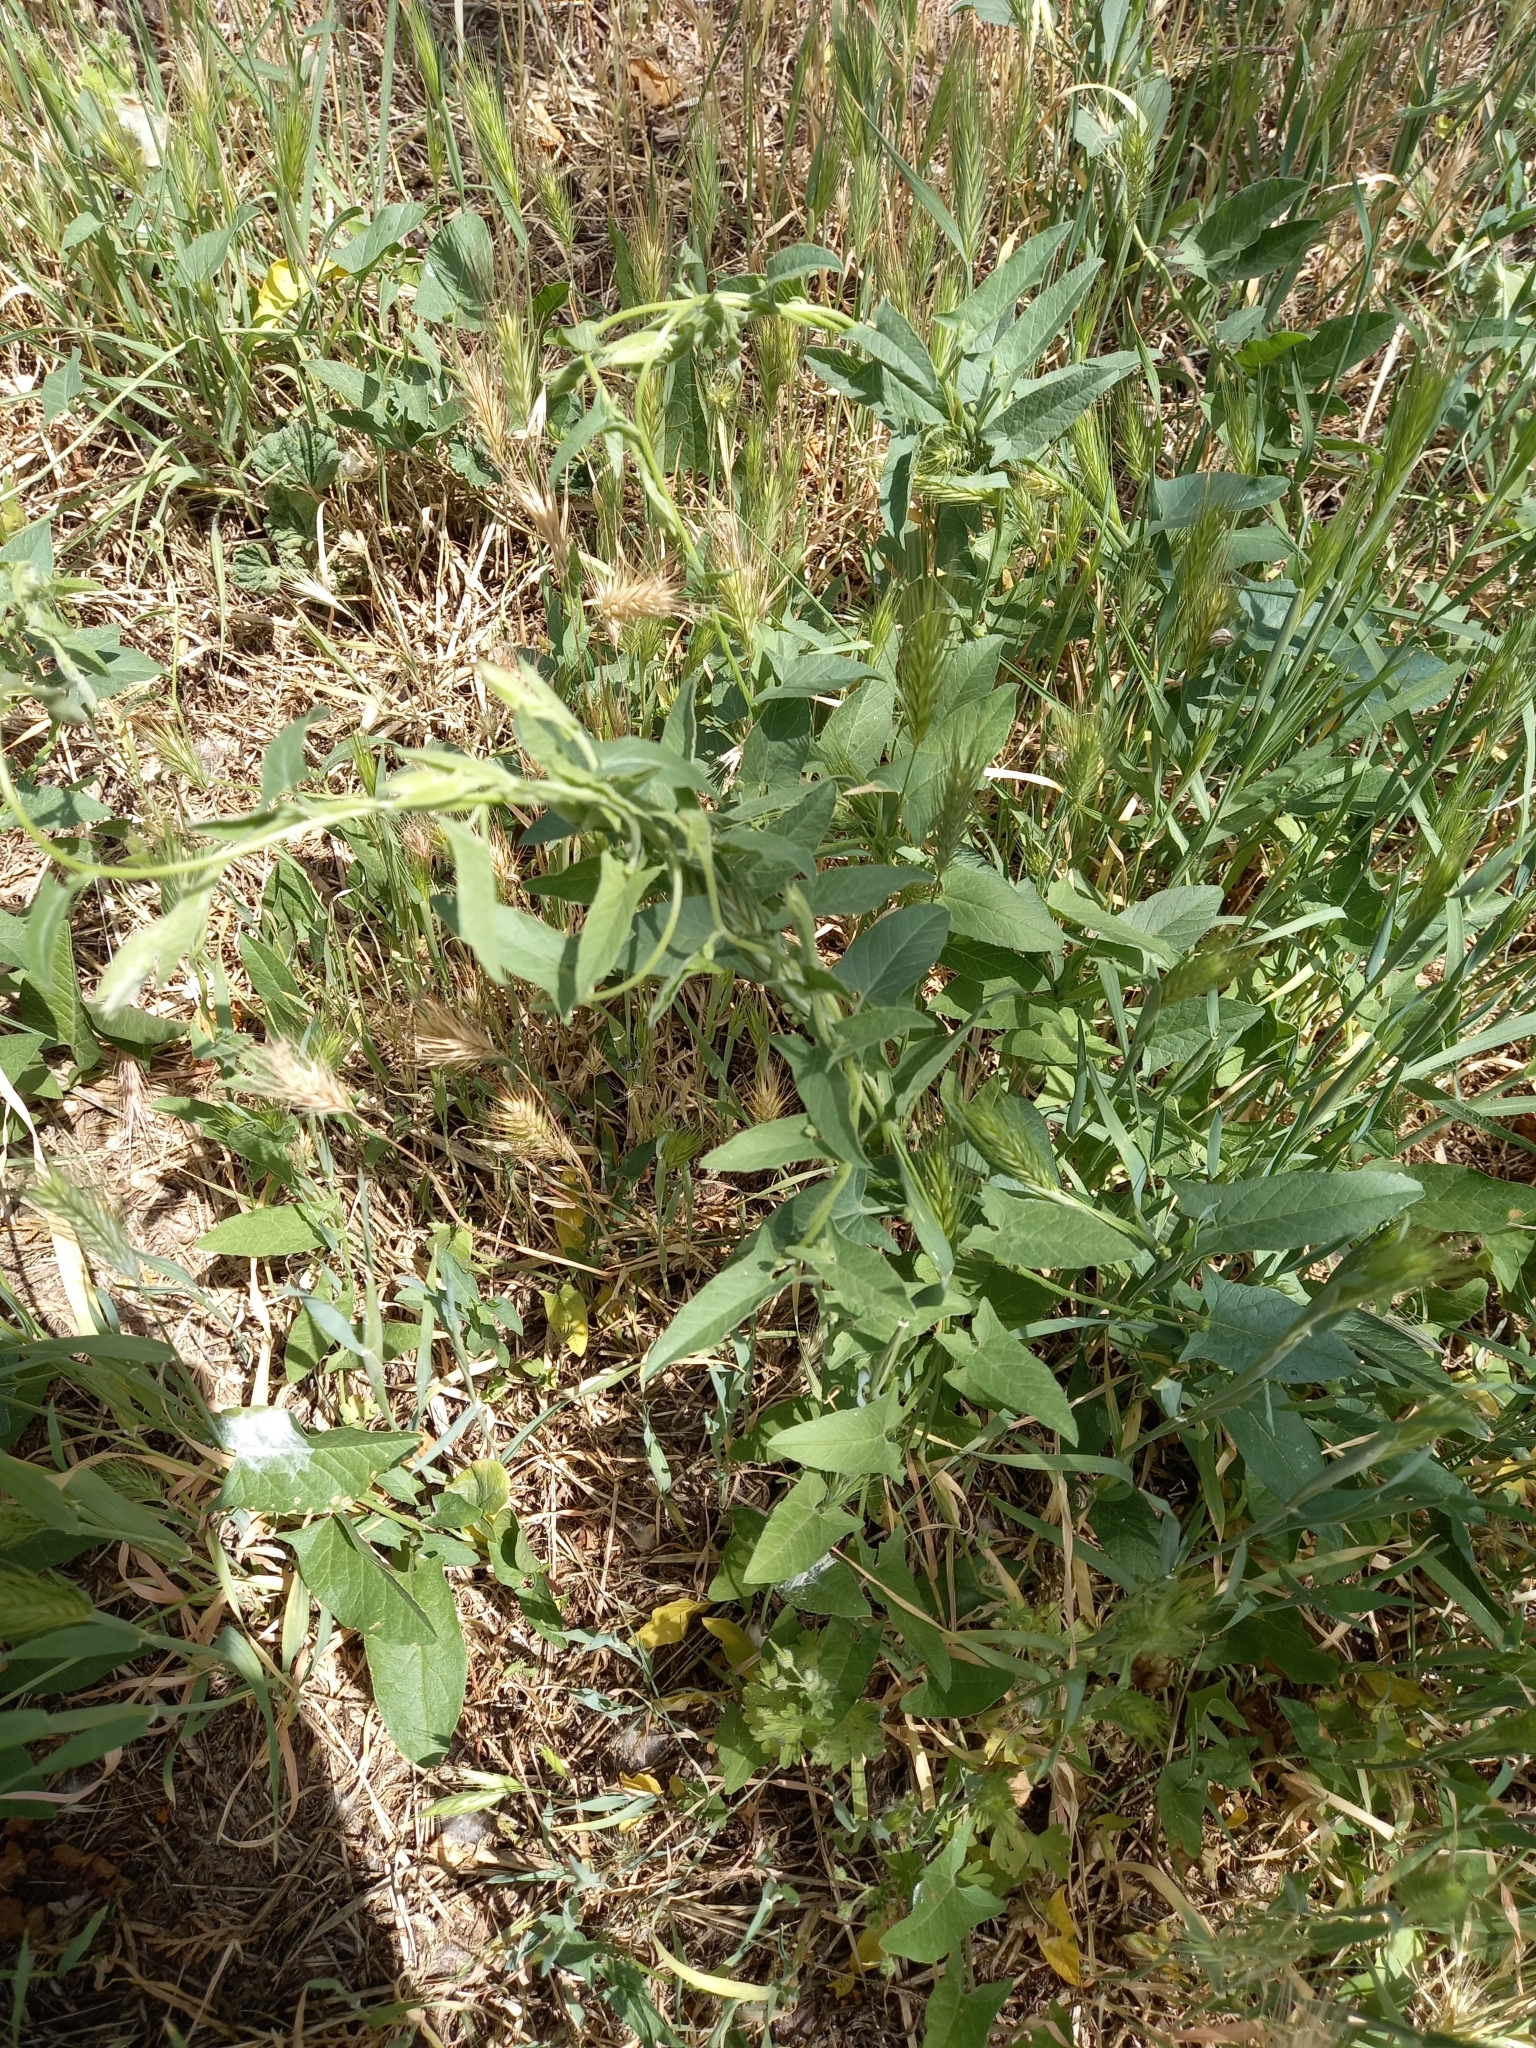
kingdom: Plantae
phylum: Tracheophyta
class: Magnoliopsida
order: Solanales
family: Convolvulaceae
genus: Convolvulus
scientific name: Convolvulus arvensis
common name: Field bindweed
